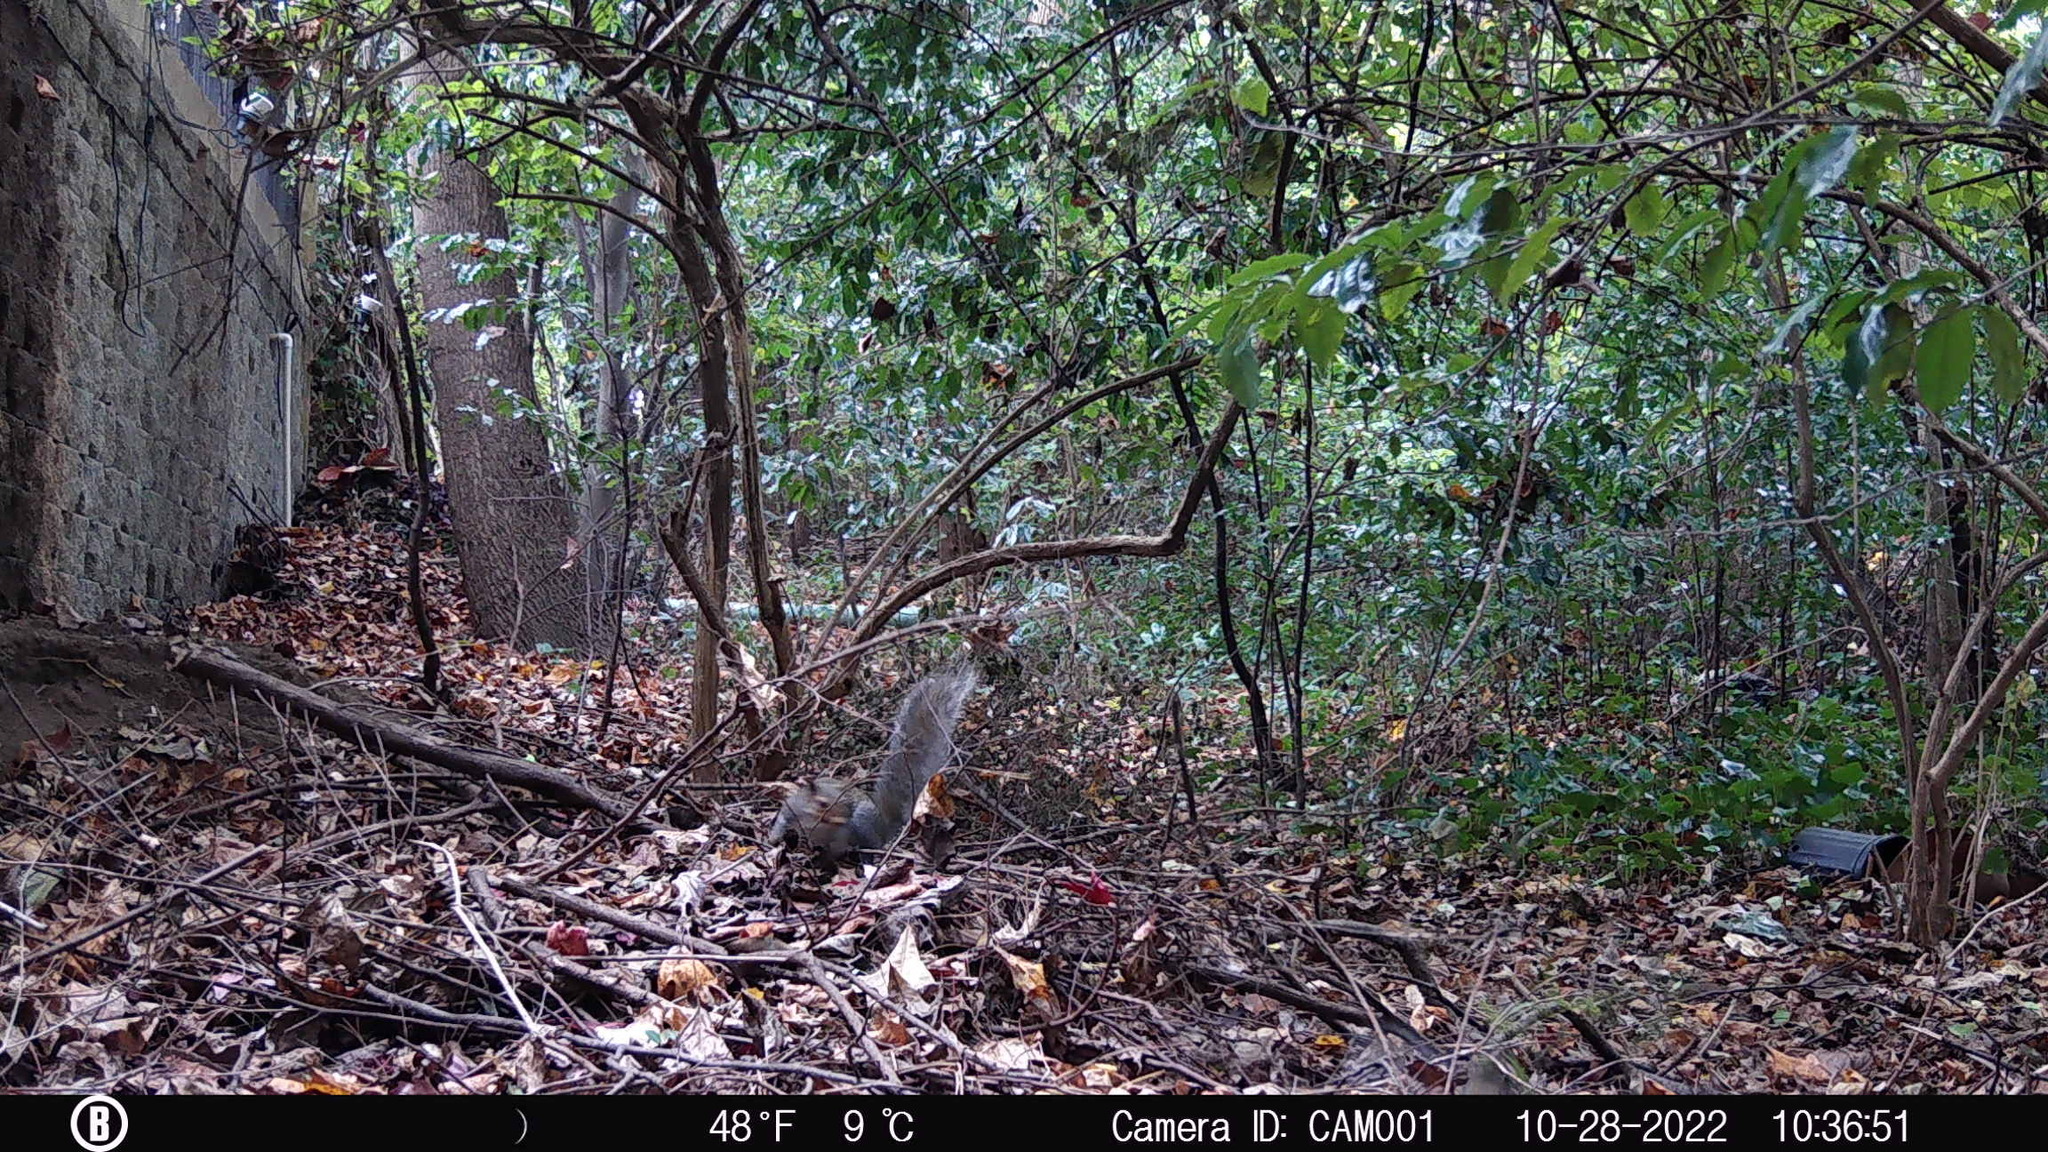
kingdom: Animalia
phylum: Chordata
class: Mammalia
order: Rodentia
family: Sciuridae
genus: Sciurus
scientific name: Sciurus carolinensis
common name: Eastern gray squirrel
